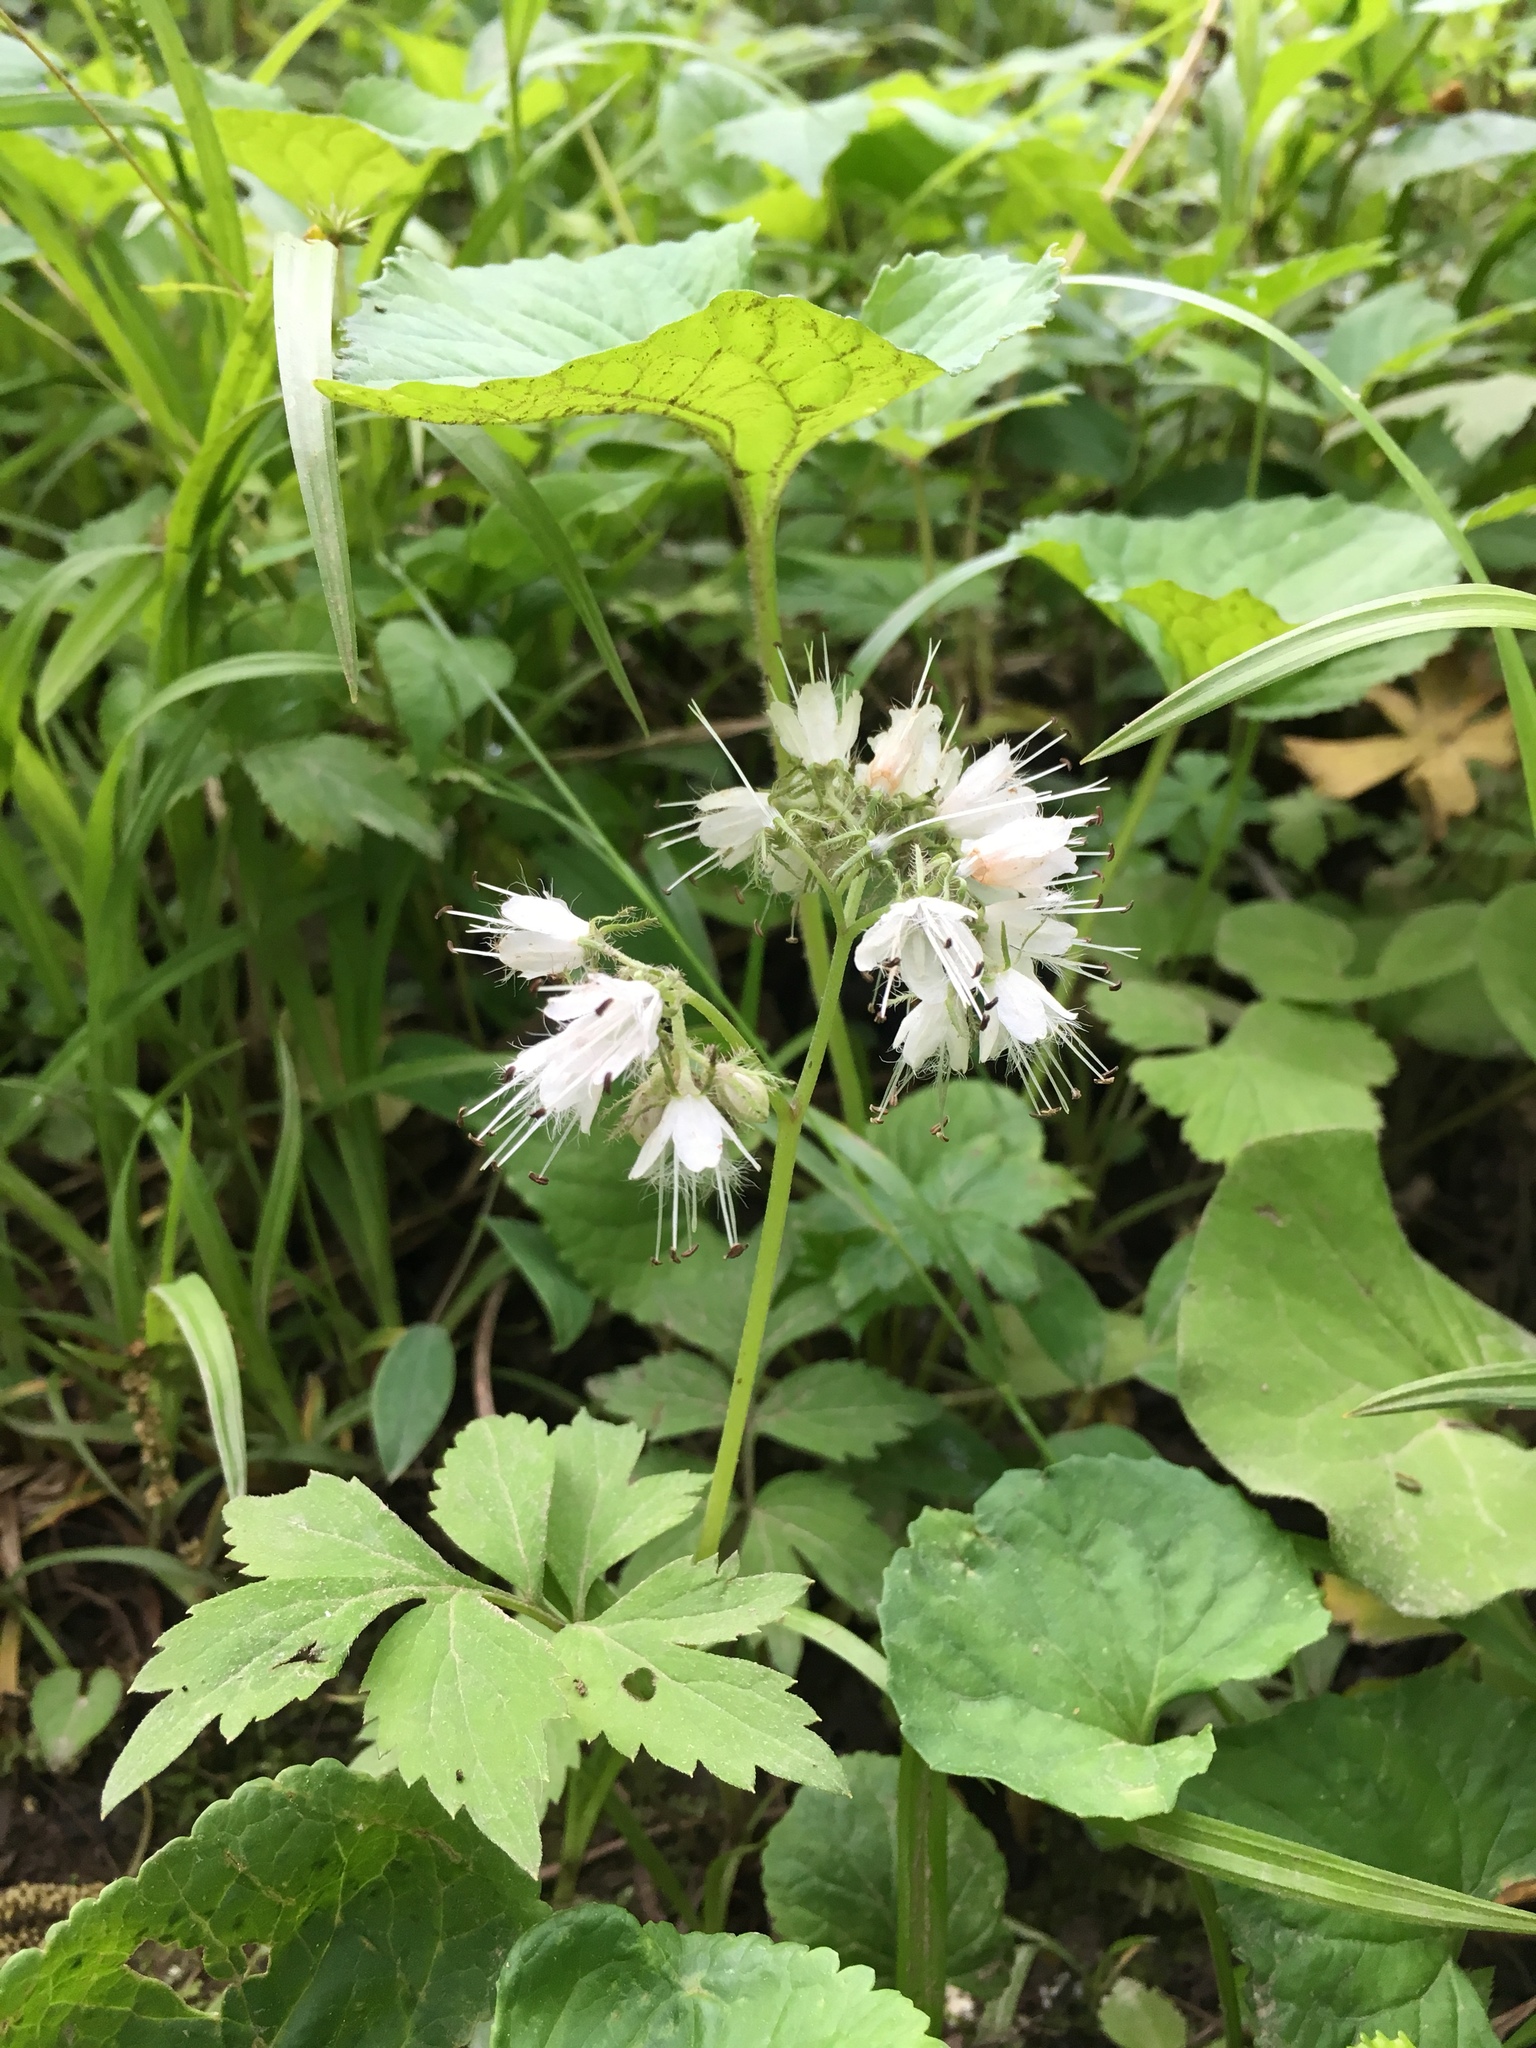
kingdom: Plantae
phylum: Tracheophyta
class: Magnoliopsida
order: Boraginales
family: Hydrophyllaceae
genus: Hydrophyllum
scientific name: Hydrophyllum virginianum
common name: Virginia waterleaf
